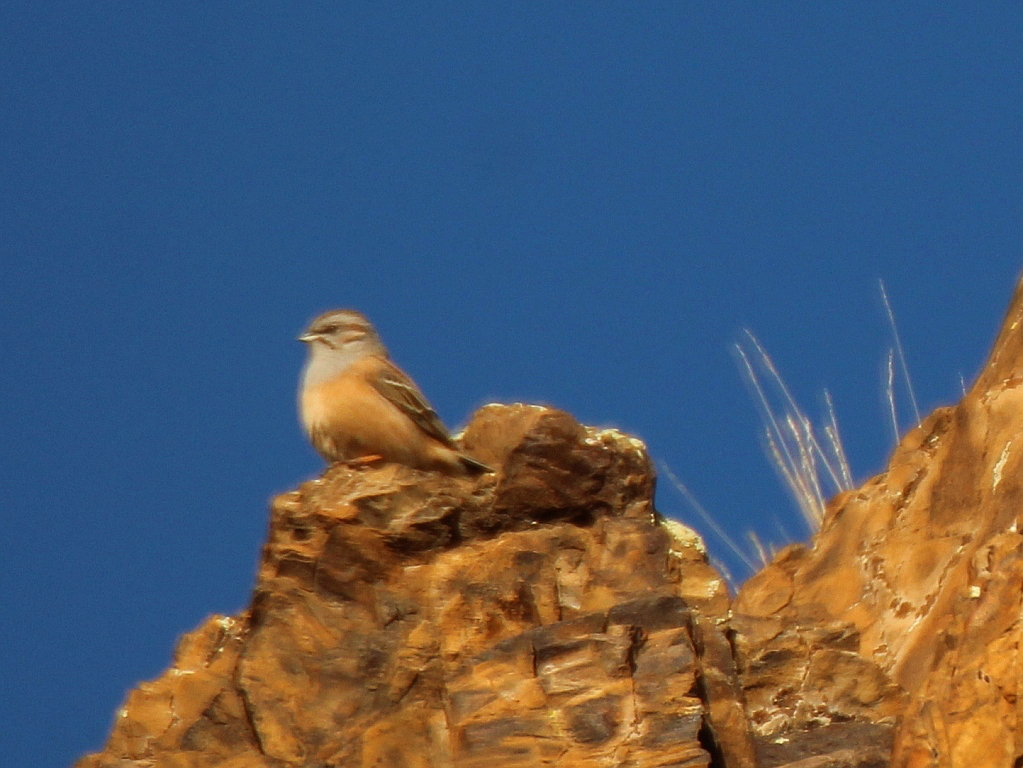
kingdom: Animalia
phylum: Chordata
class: Aves
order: Passeriformes
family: Emberizidae
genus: Emberiza
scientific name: Emberiza godlewskii
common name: Godlewski's bunting
